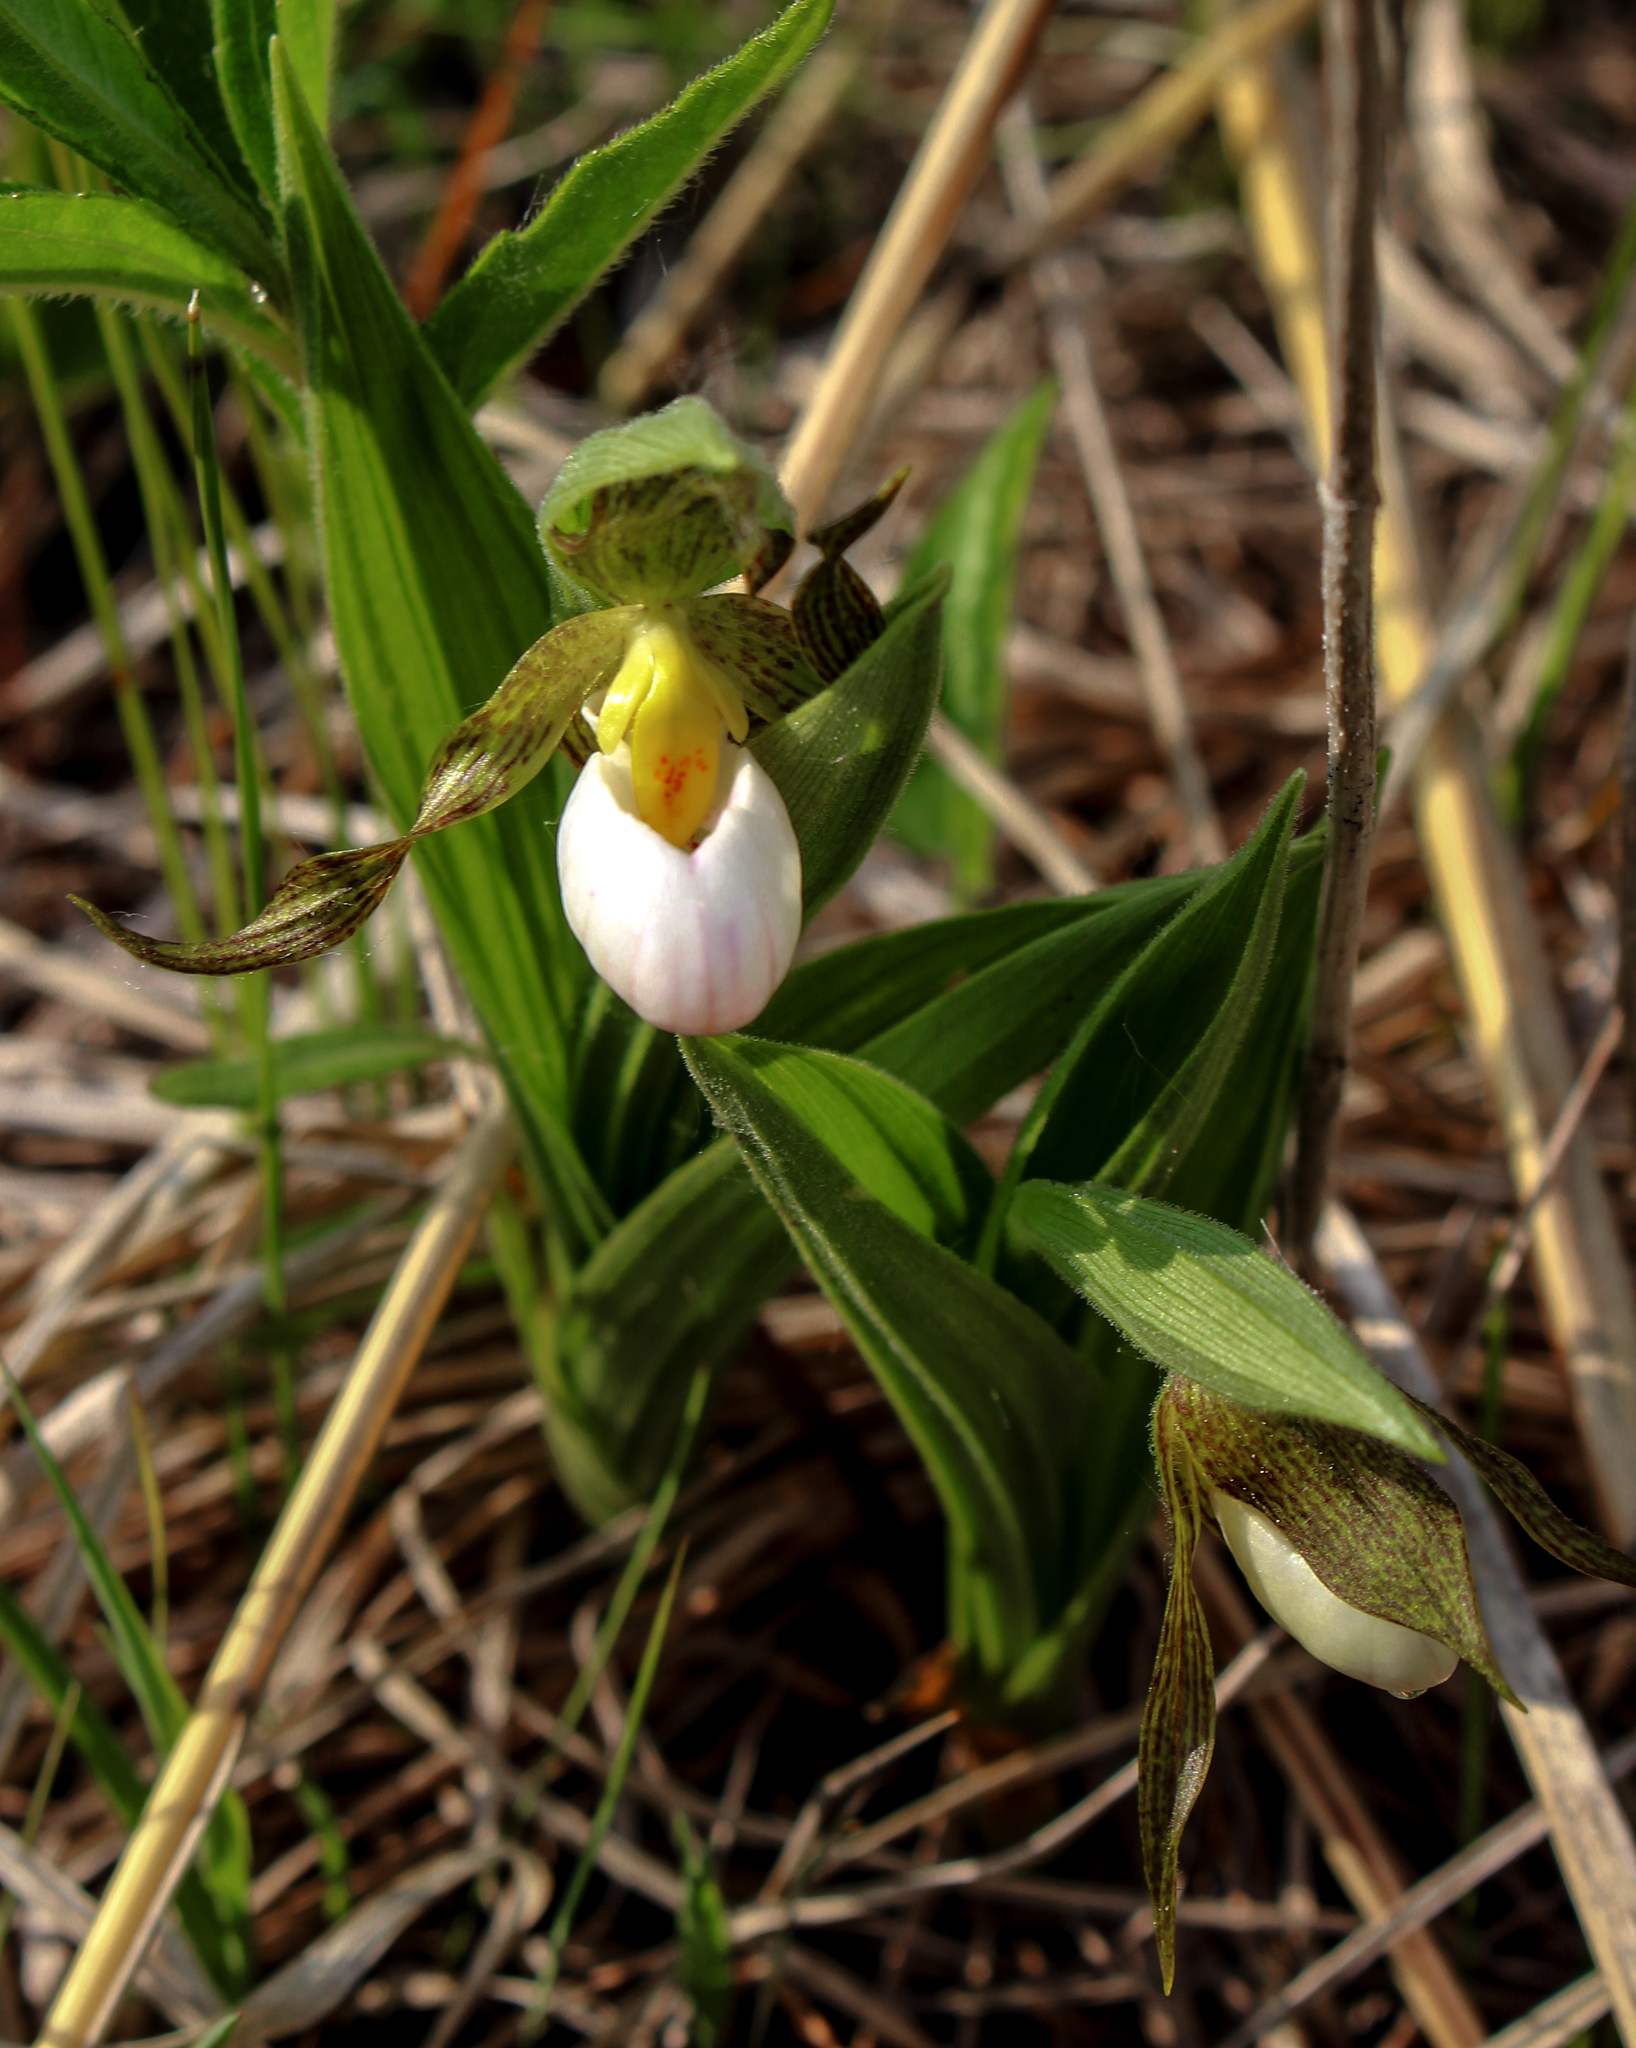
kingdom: Plantae
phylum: Tracheophyta
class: Liliopsida
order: Asparagales
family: Orchidaceae
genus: Cypripedium
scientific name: Cypripedium candidum
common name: White lady's-slipper
